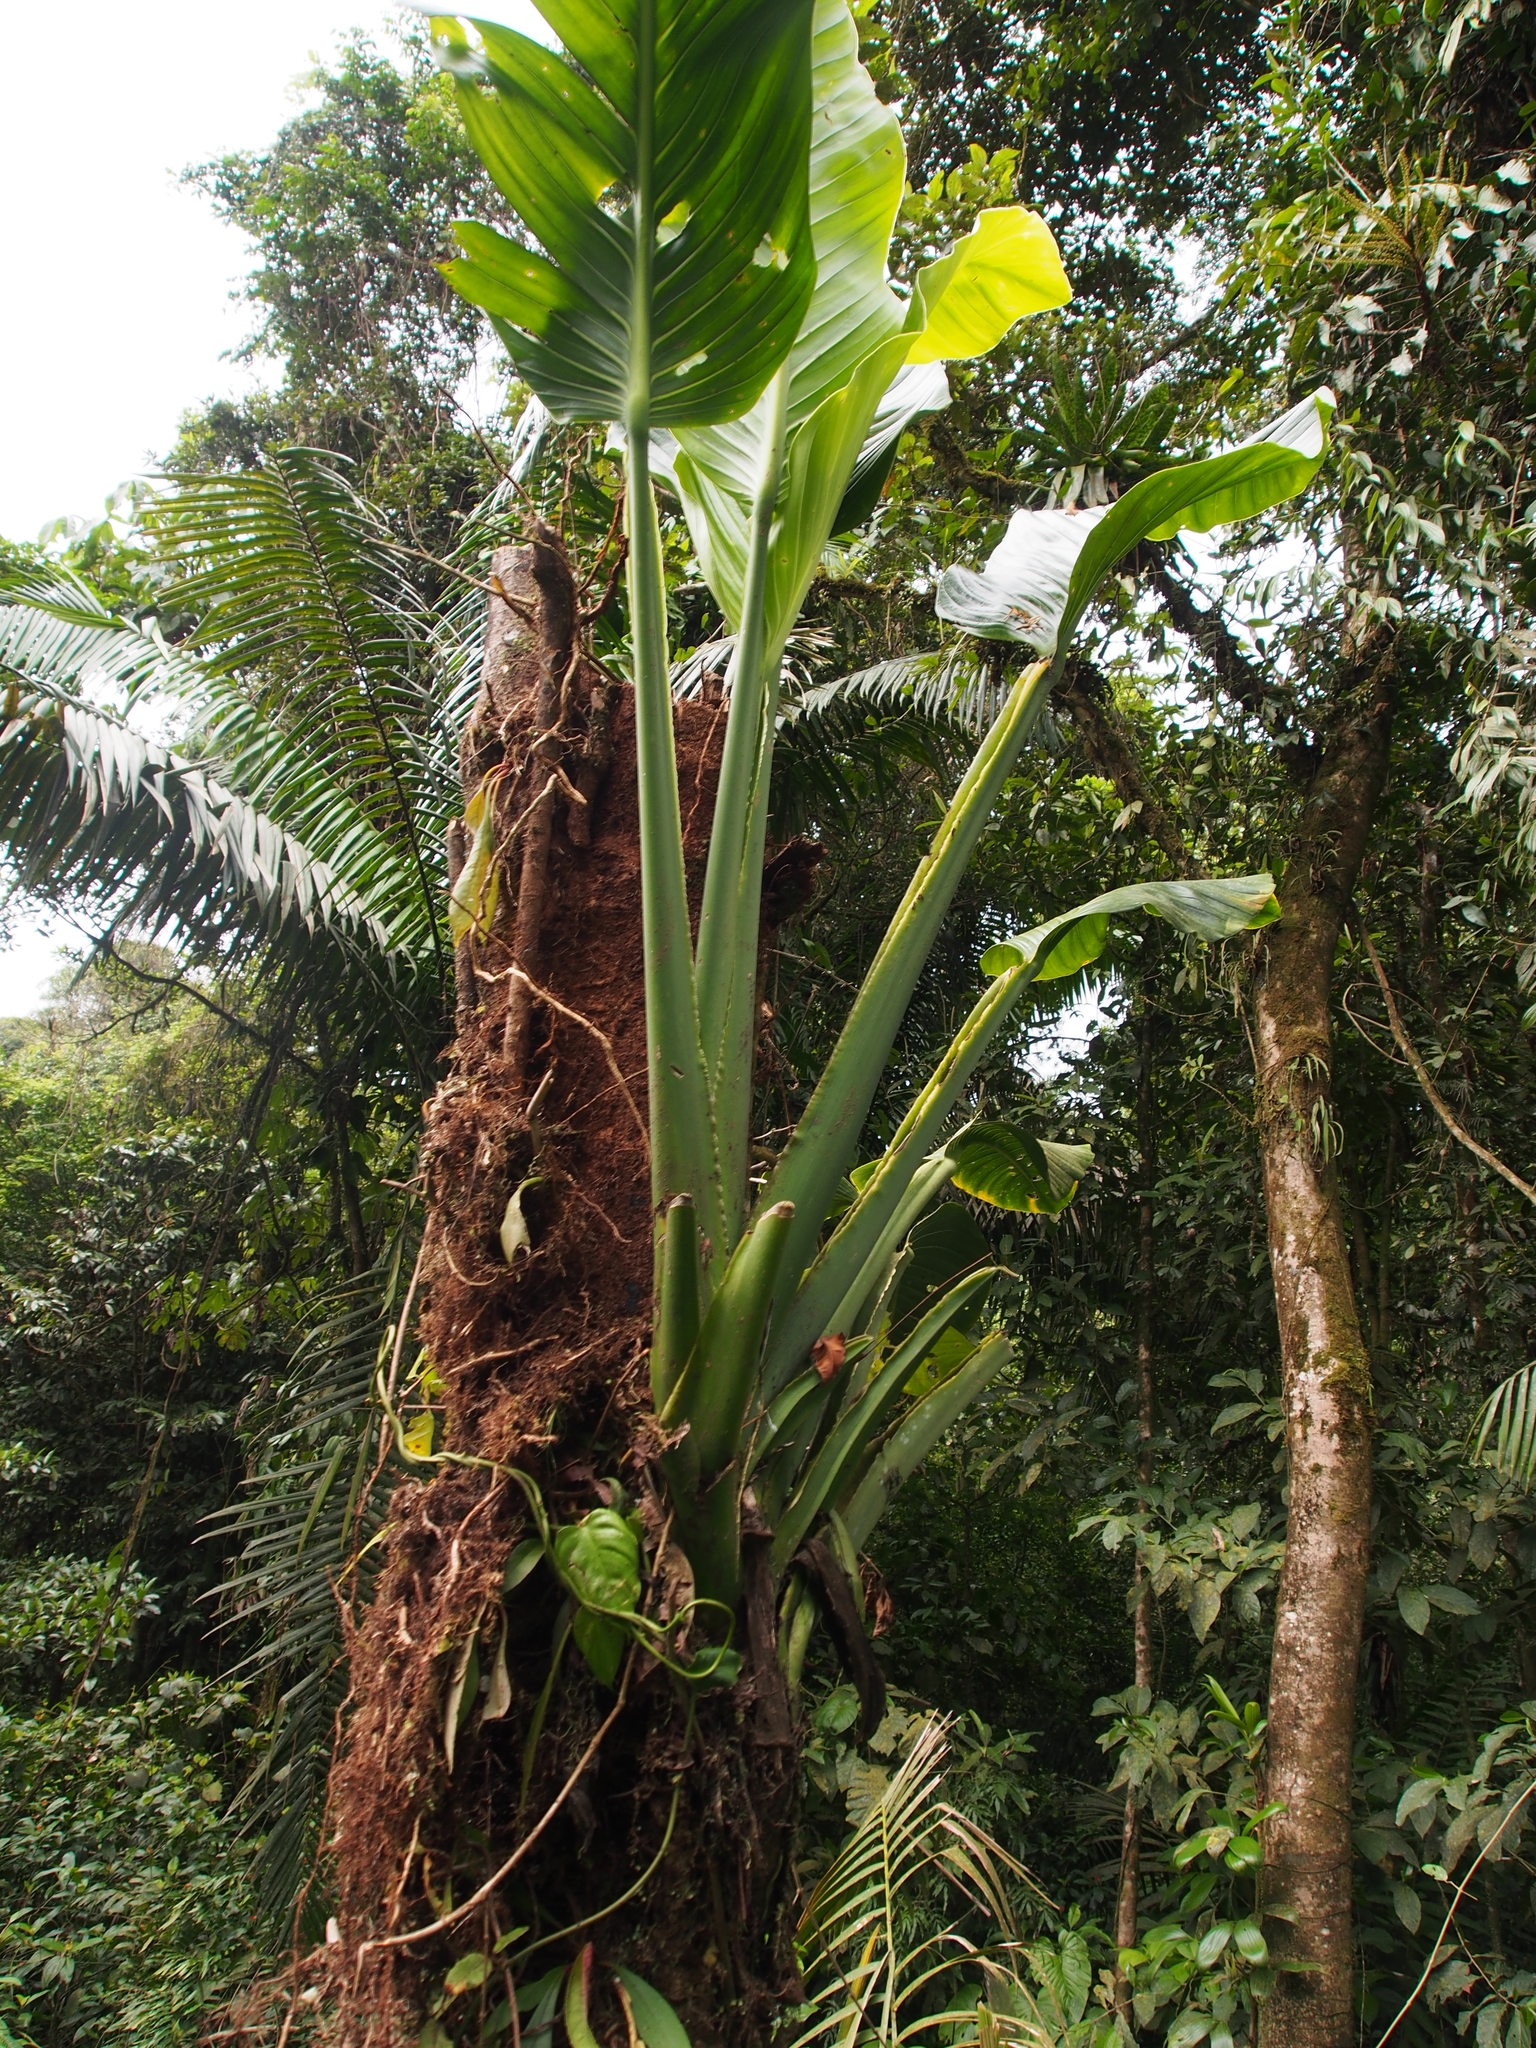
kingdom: Plantae
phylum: Tracheophyta
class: Liliopsida
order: Alismatales
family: Araceae
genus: Monstera
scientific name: Monstera standleyana
